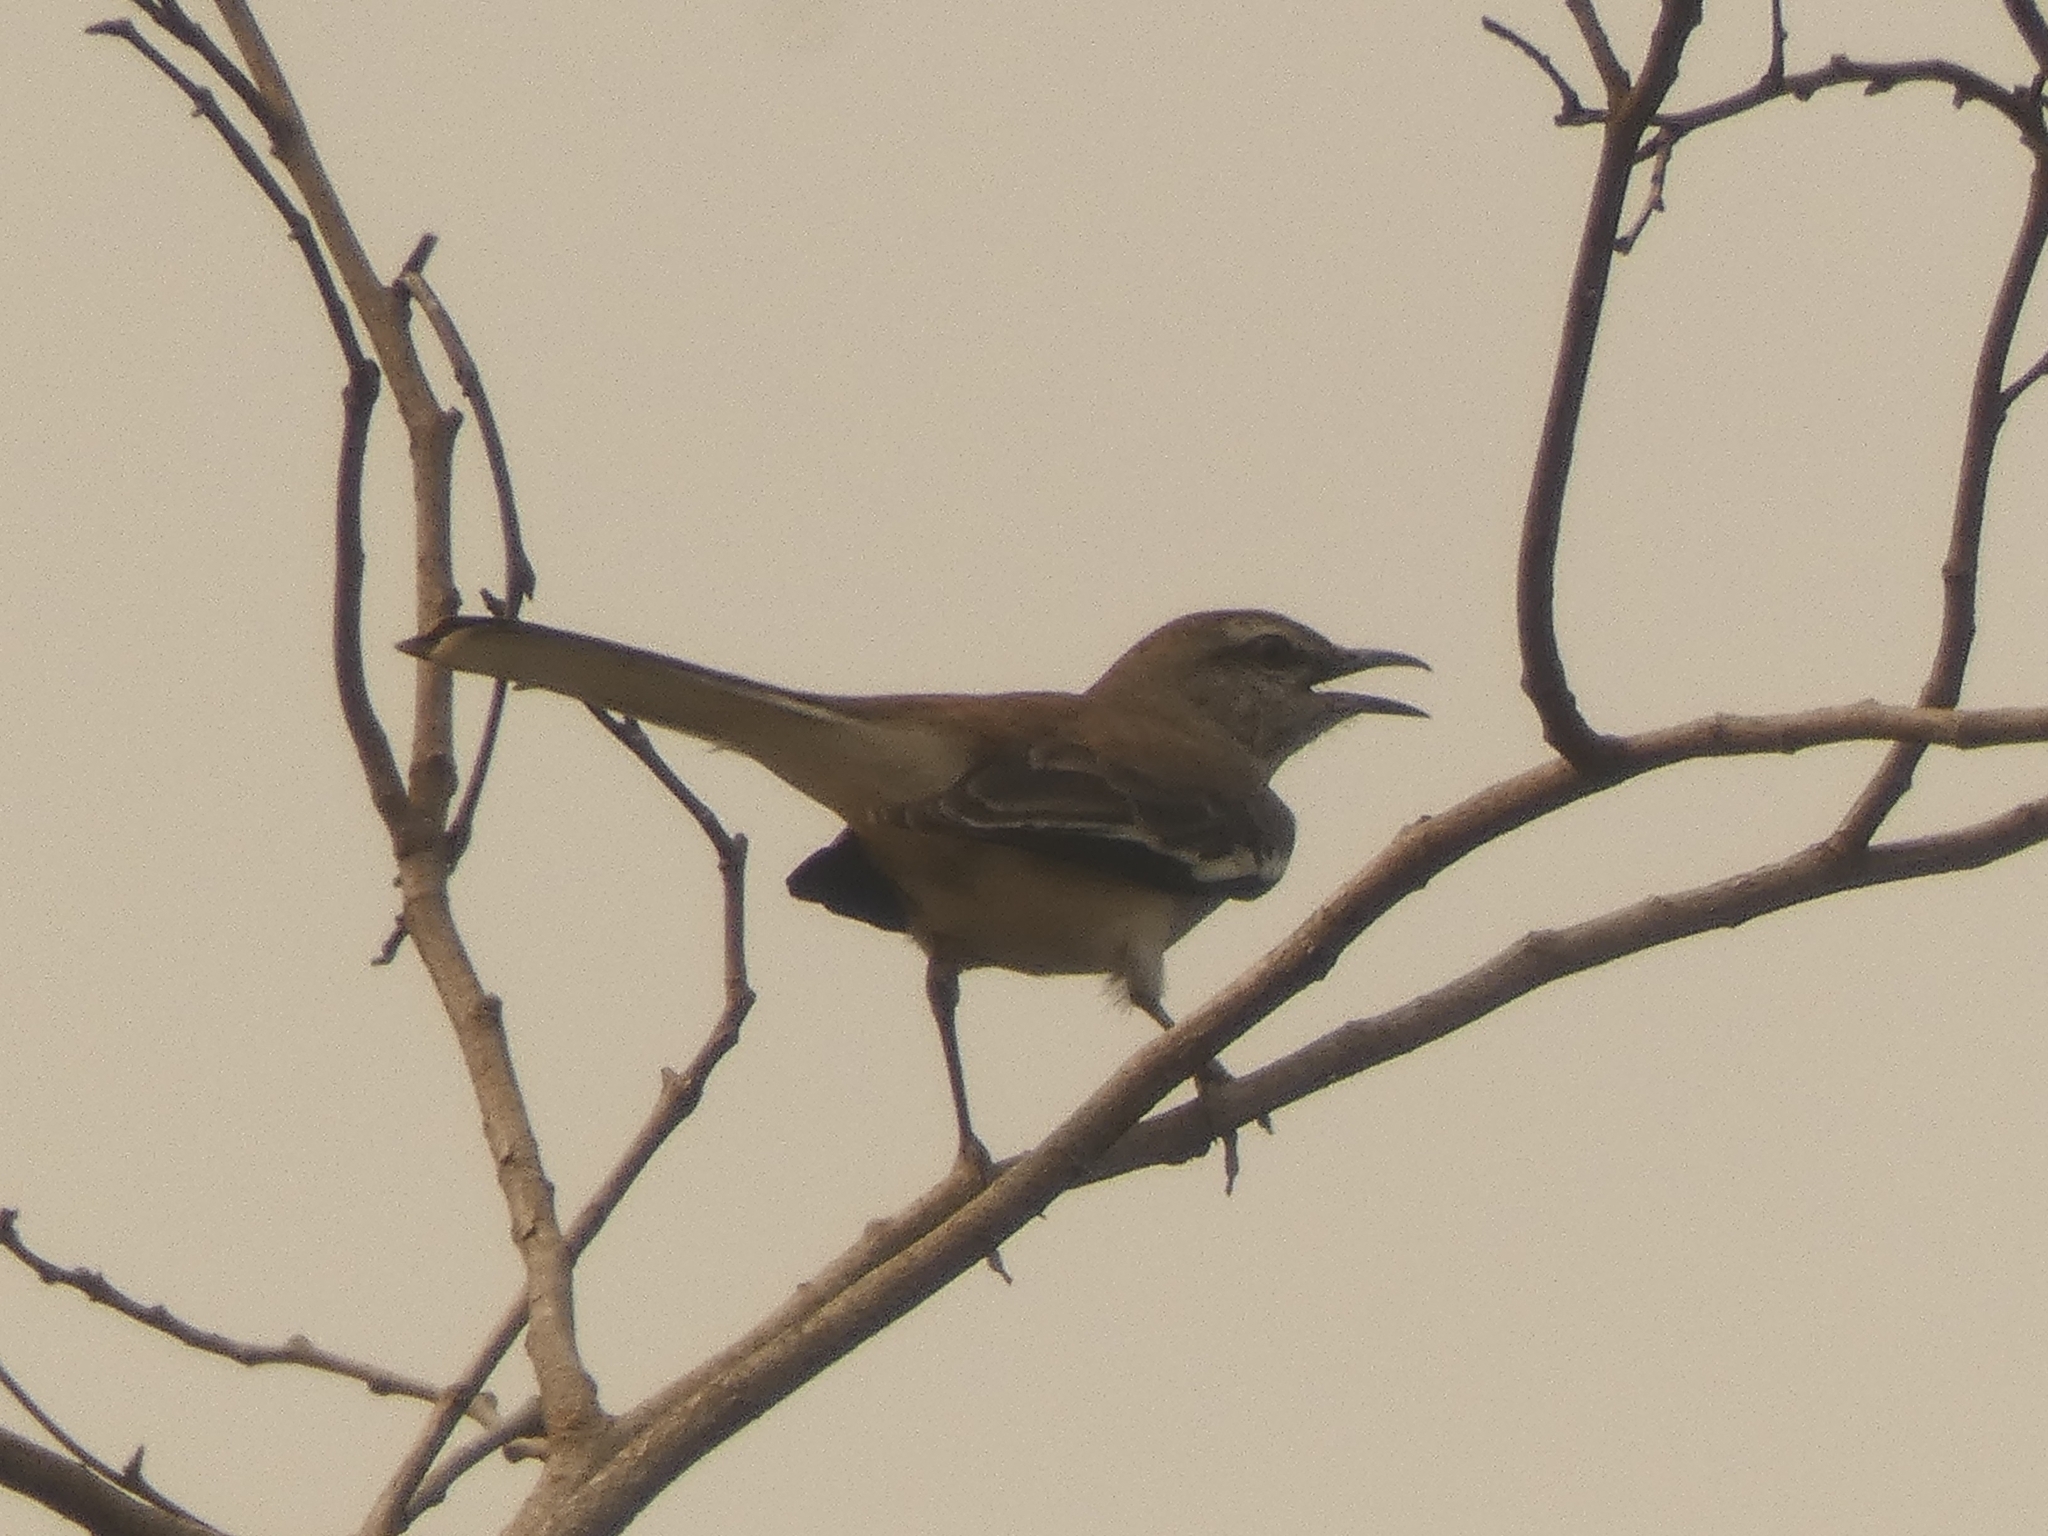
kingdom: Animalia
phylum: Chordata
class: Aves
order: Passeriformes
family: Mimidae
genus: Mimus
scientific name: Mimus triurus
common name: White-banded mockingbird
